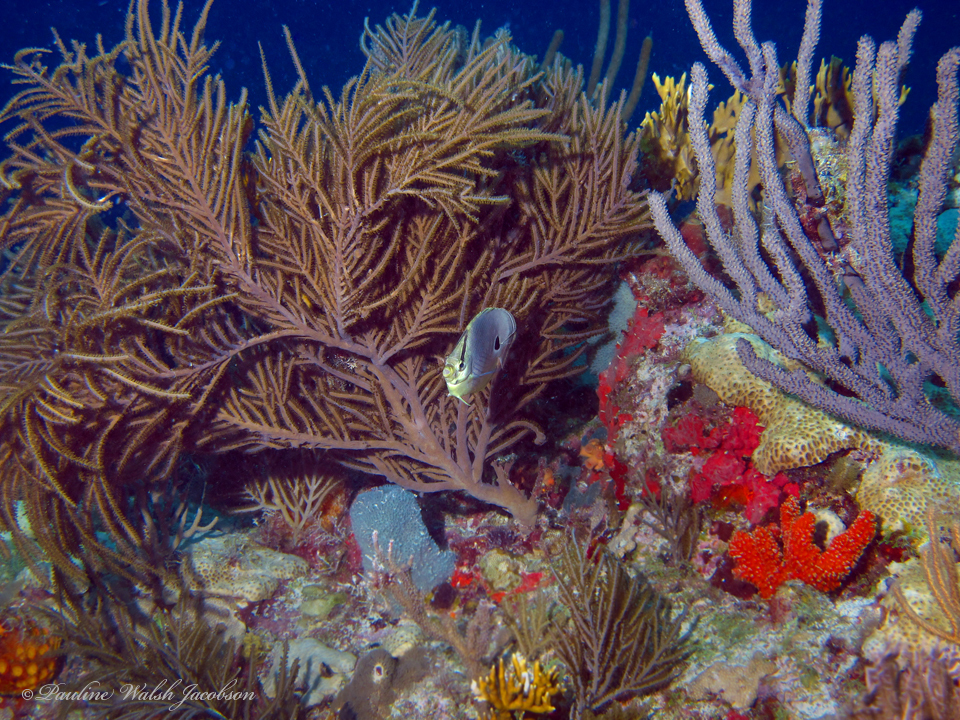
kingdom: Animalia
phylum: Chordata
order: Perciformes
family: Chaetodontidae
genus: Chaetodon
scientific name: Chaetodon capistratus
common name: Kete
